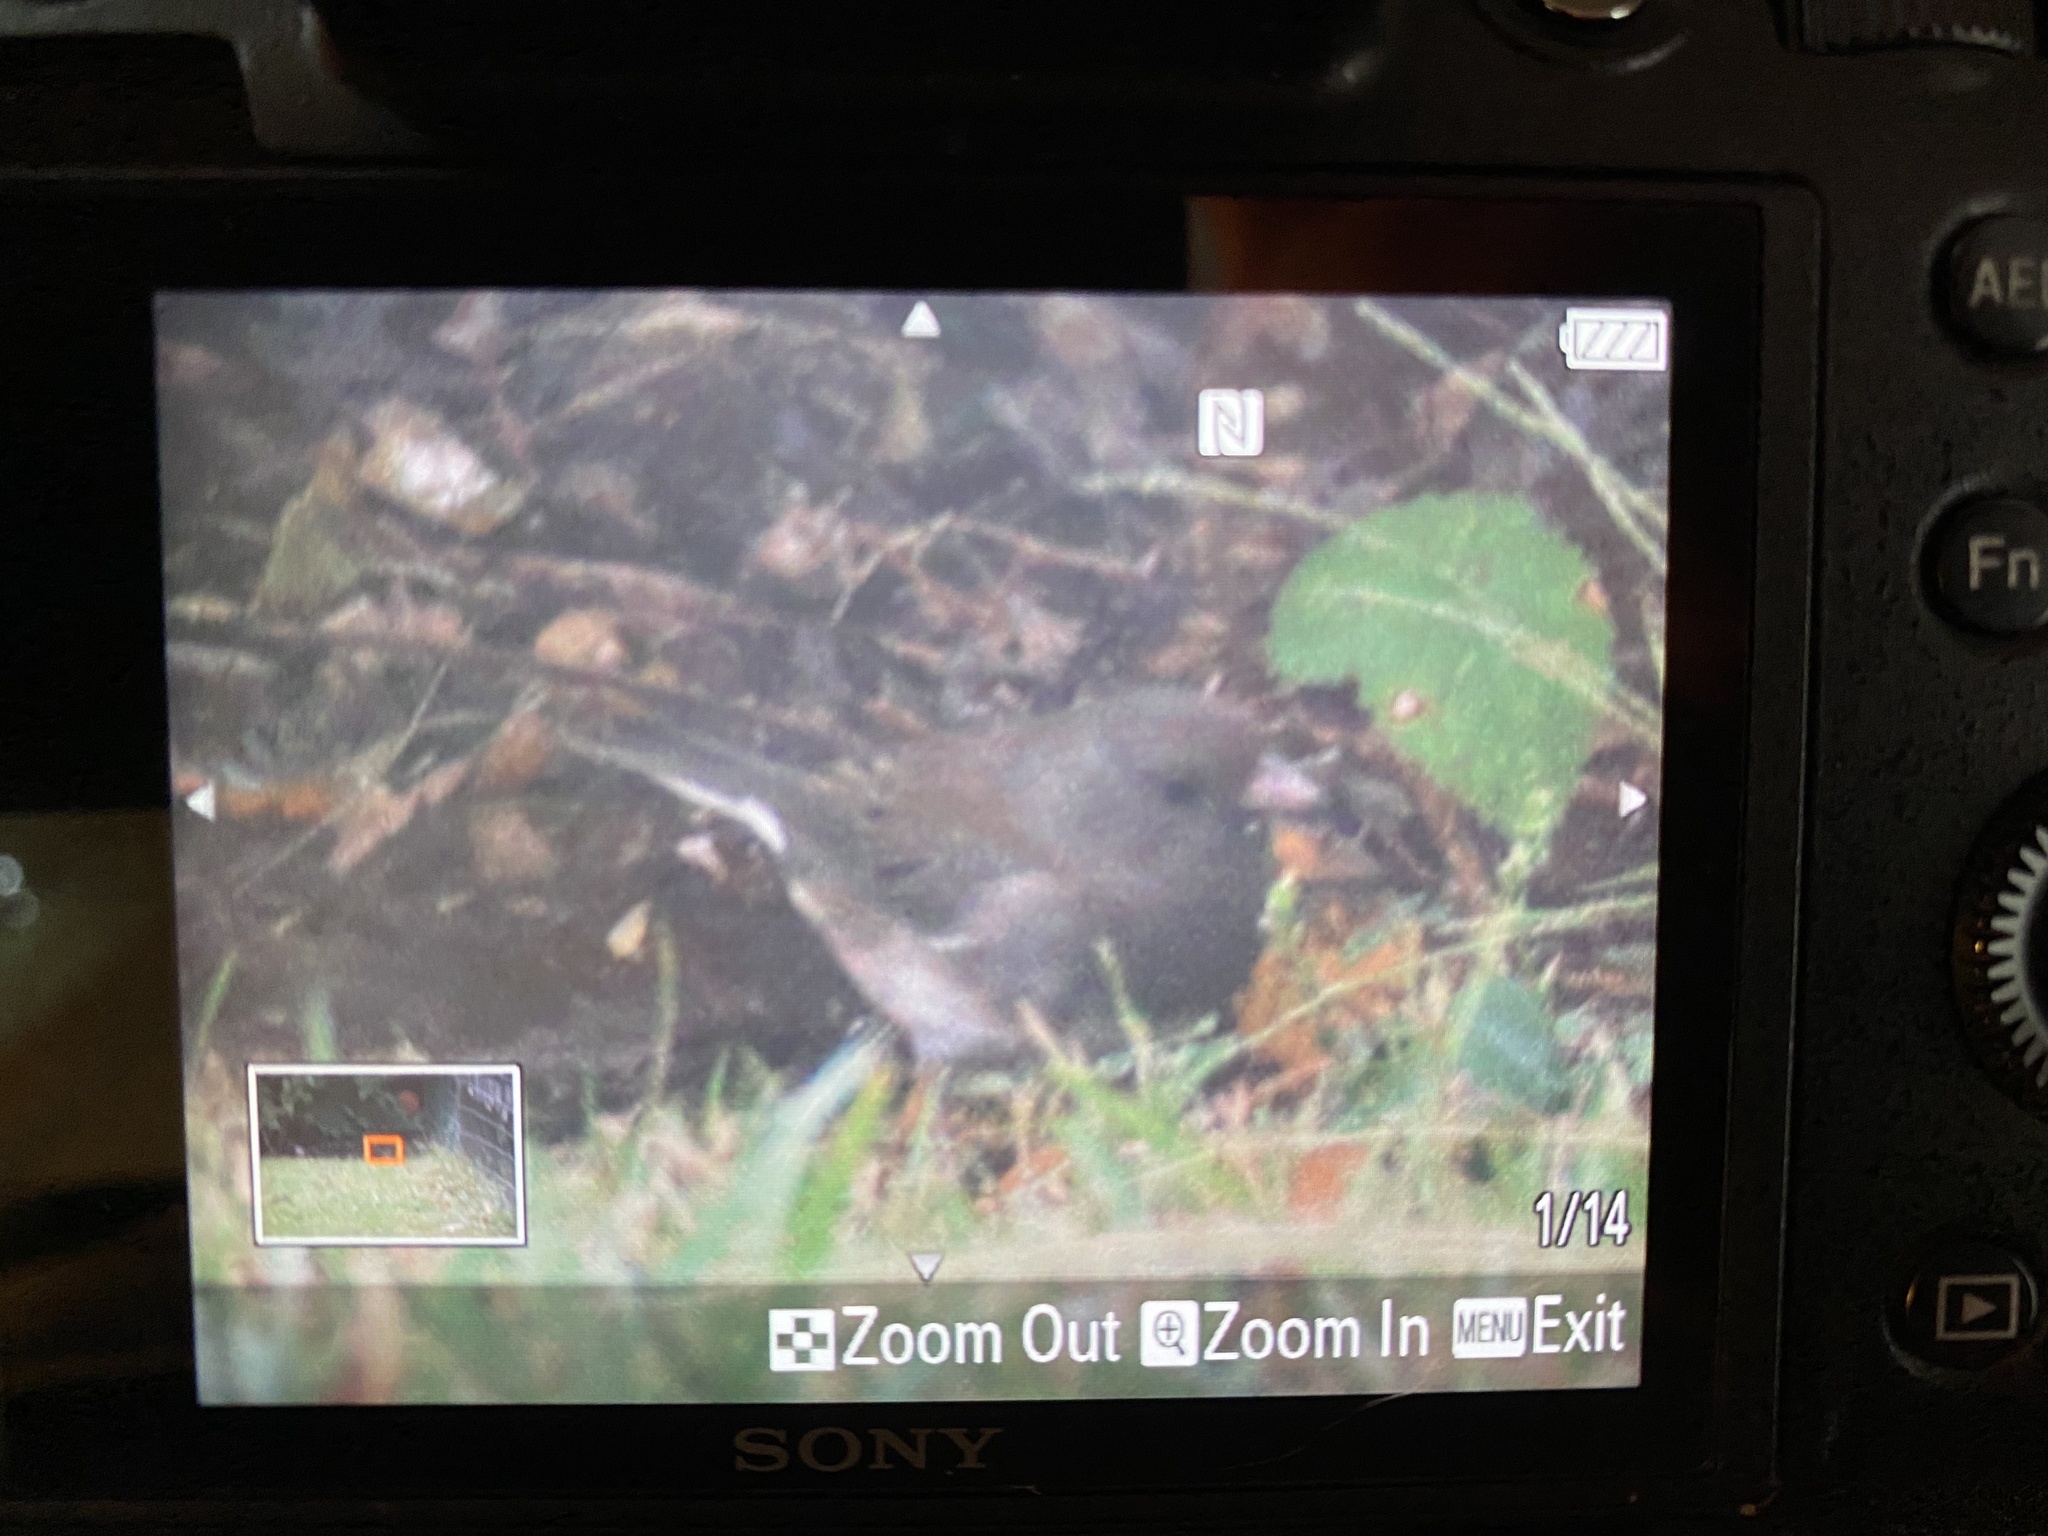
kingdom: Animalia
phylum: Chordata
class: Aves
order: Passeriformes
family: Passerellidae
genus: Junco
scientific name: Junco hyemalis
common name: Dark-eyed junco
